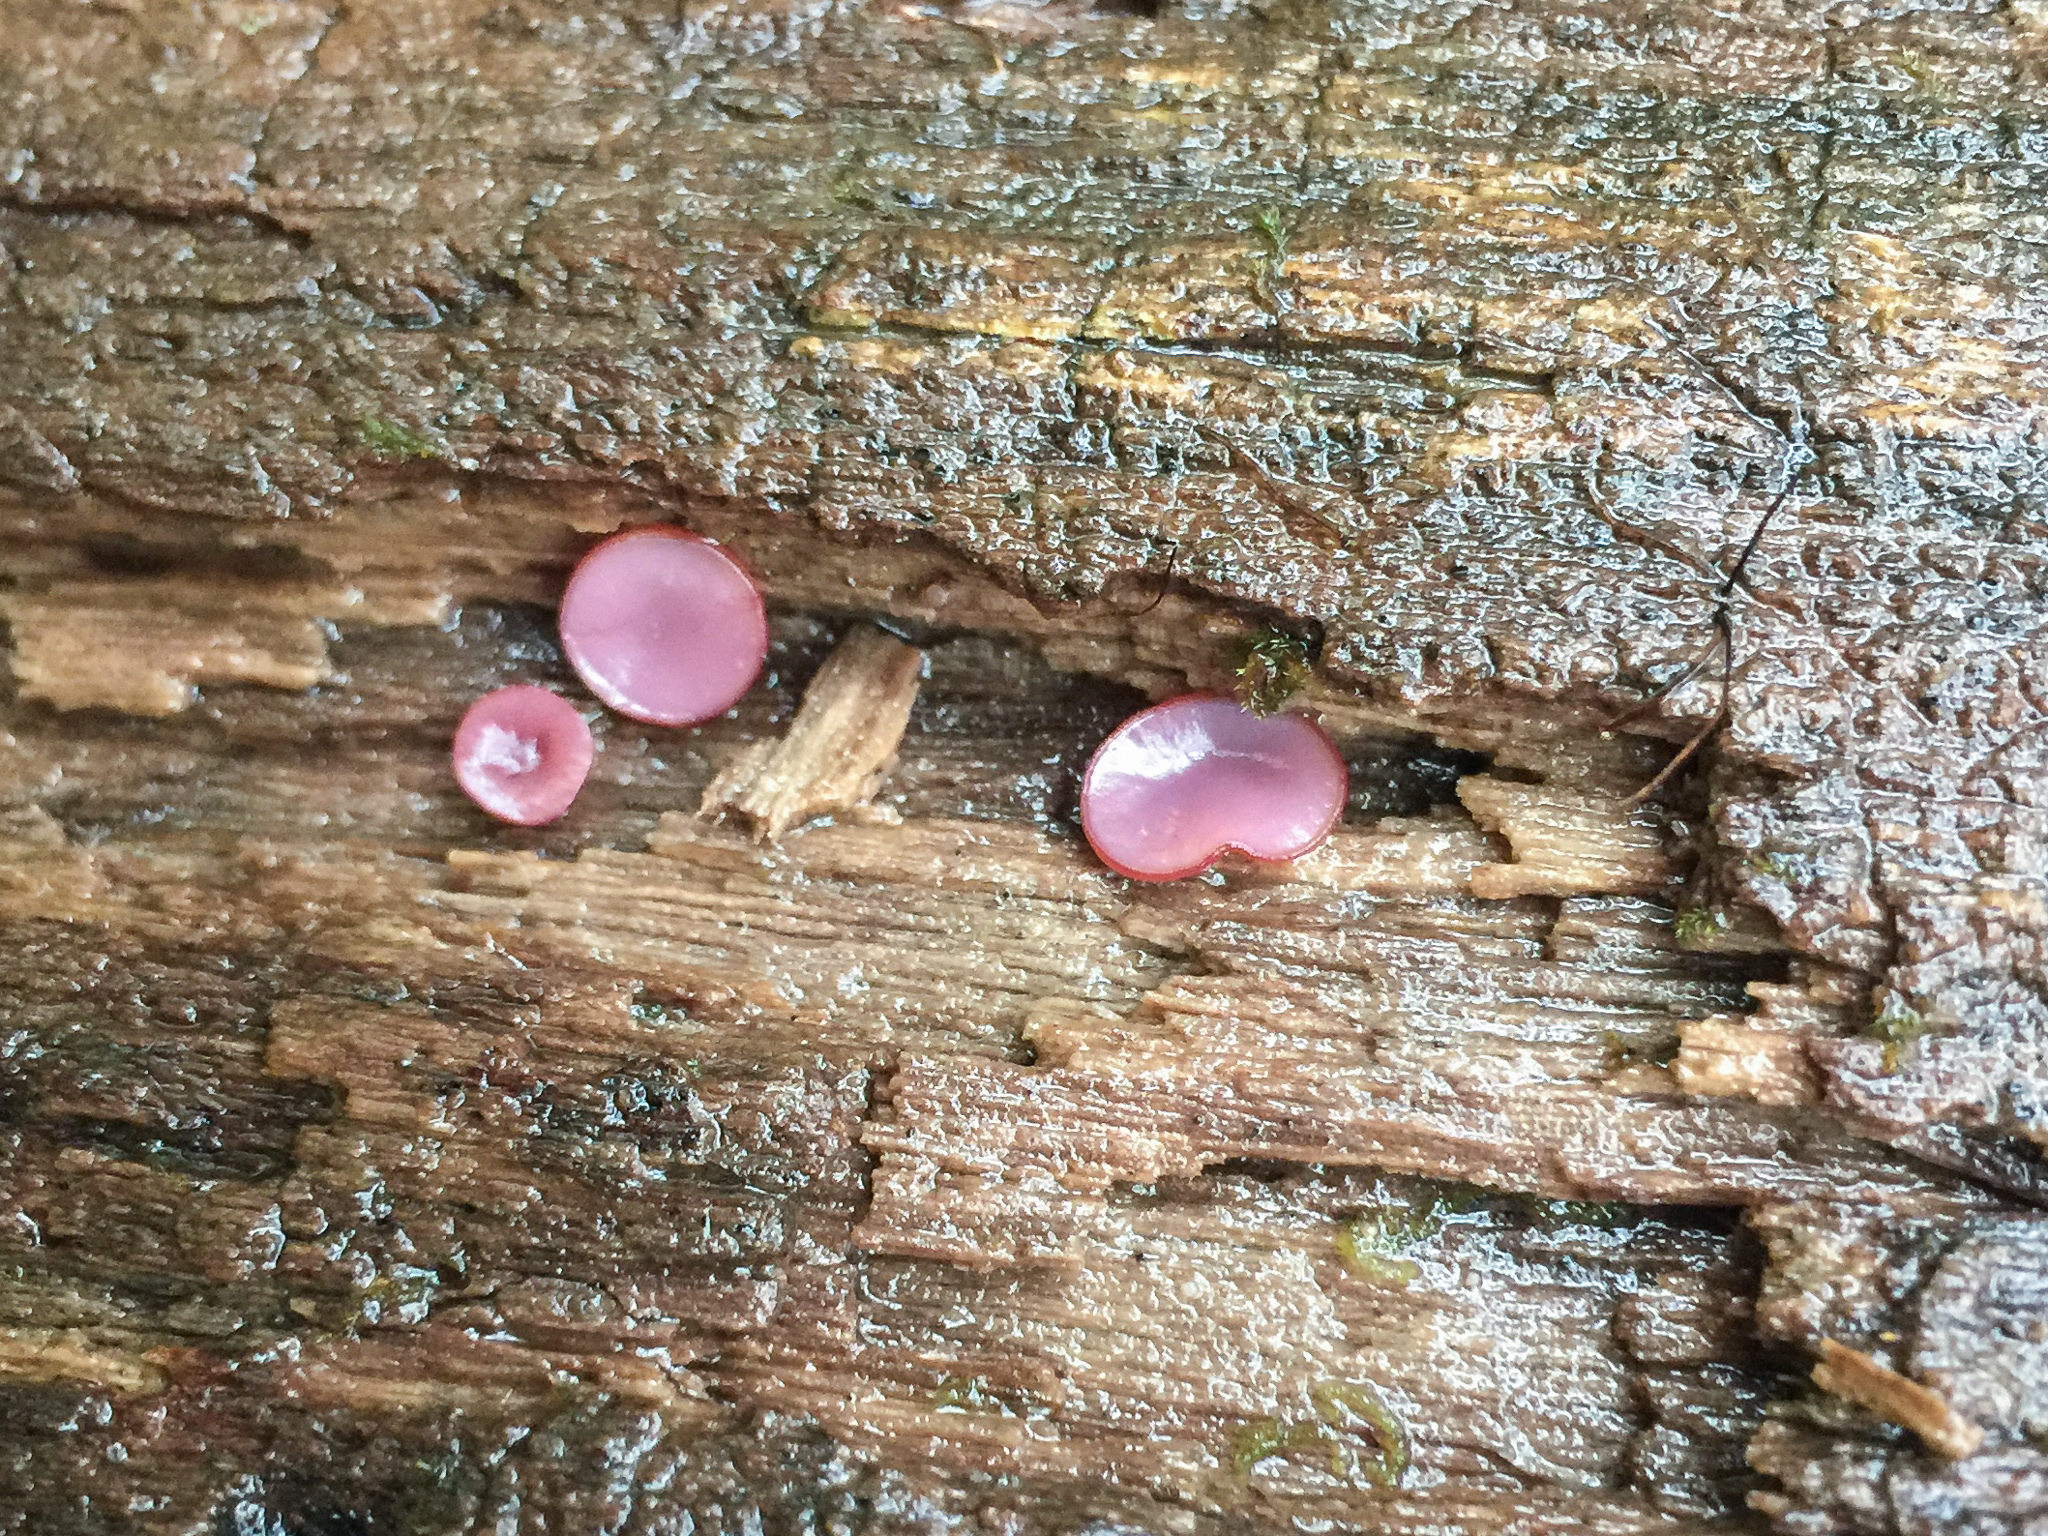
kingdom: Fungi
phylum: Ascomycota
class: Leotiomycetes
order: Helotiales
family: Gelatinodiscaceae
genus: Ascocoryne
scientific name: Ascocoryne sarcoides
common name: Purple jellydisc
